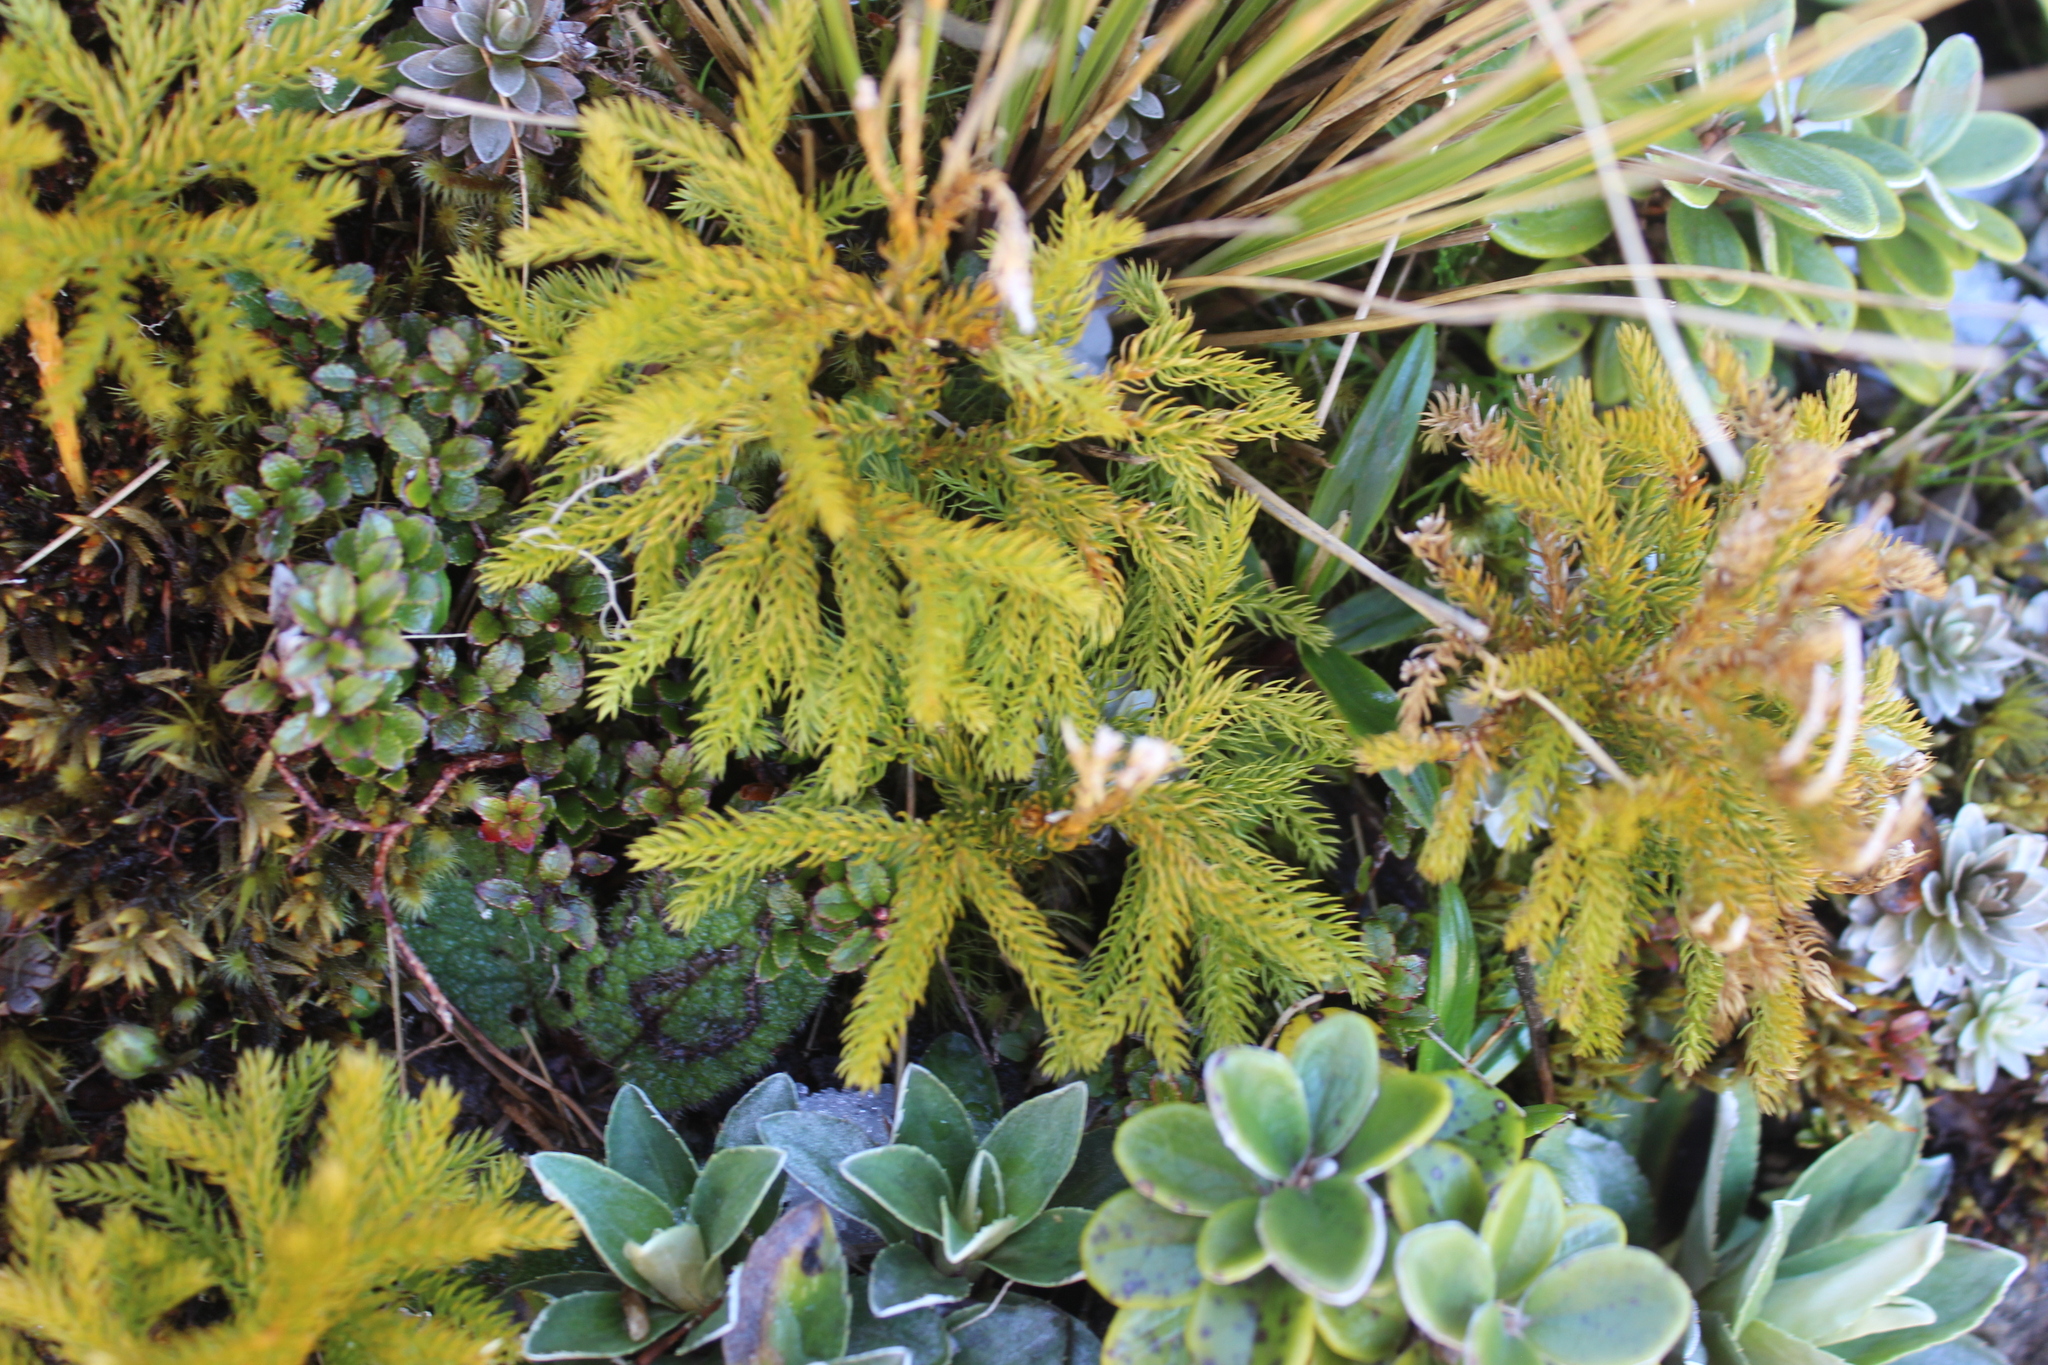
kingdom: Plantae
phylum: Tracheophyta
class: Lycopodiopsida
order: Lycopodiales
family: Lycopodiaceae
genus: Austrolycopodium
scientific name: Austrolycopodium fastigiatum
